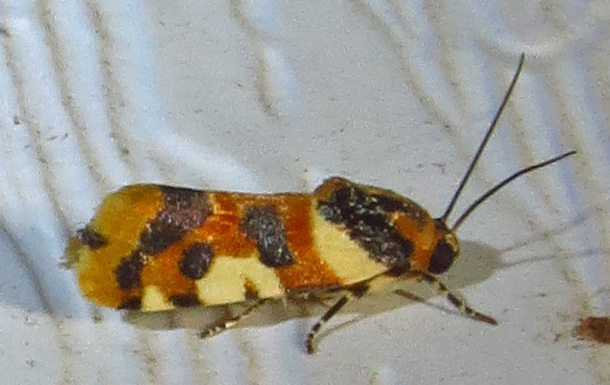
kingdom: Animalia
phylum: Arthropoda
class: Insecta
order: Lepidoptera
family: Noctuidae
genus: Acontia
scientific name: Acontia dama
